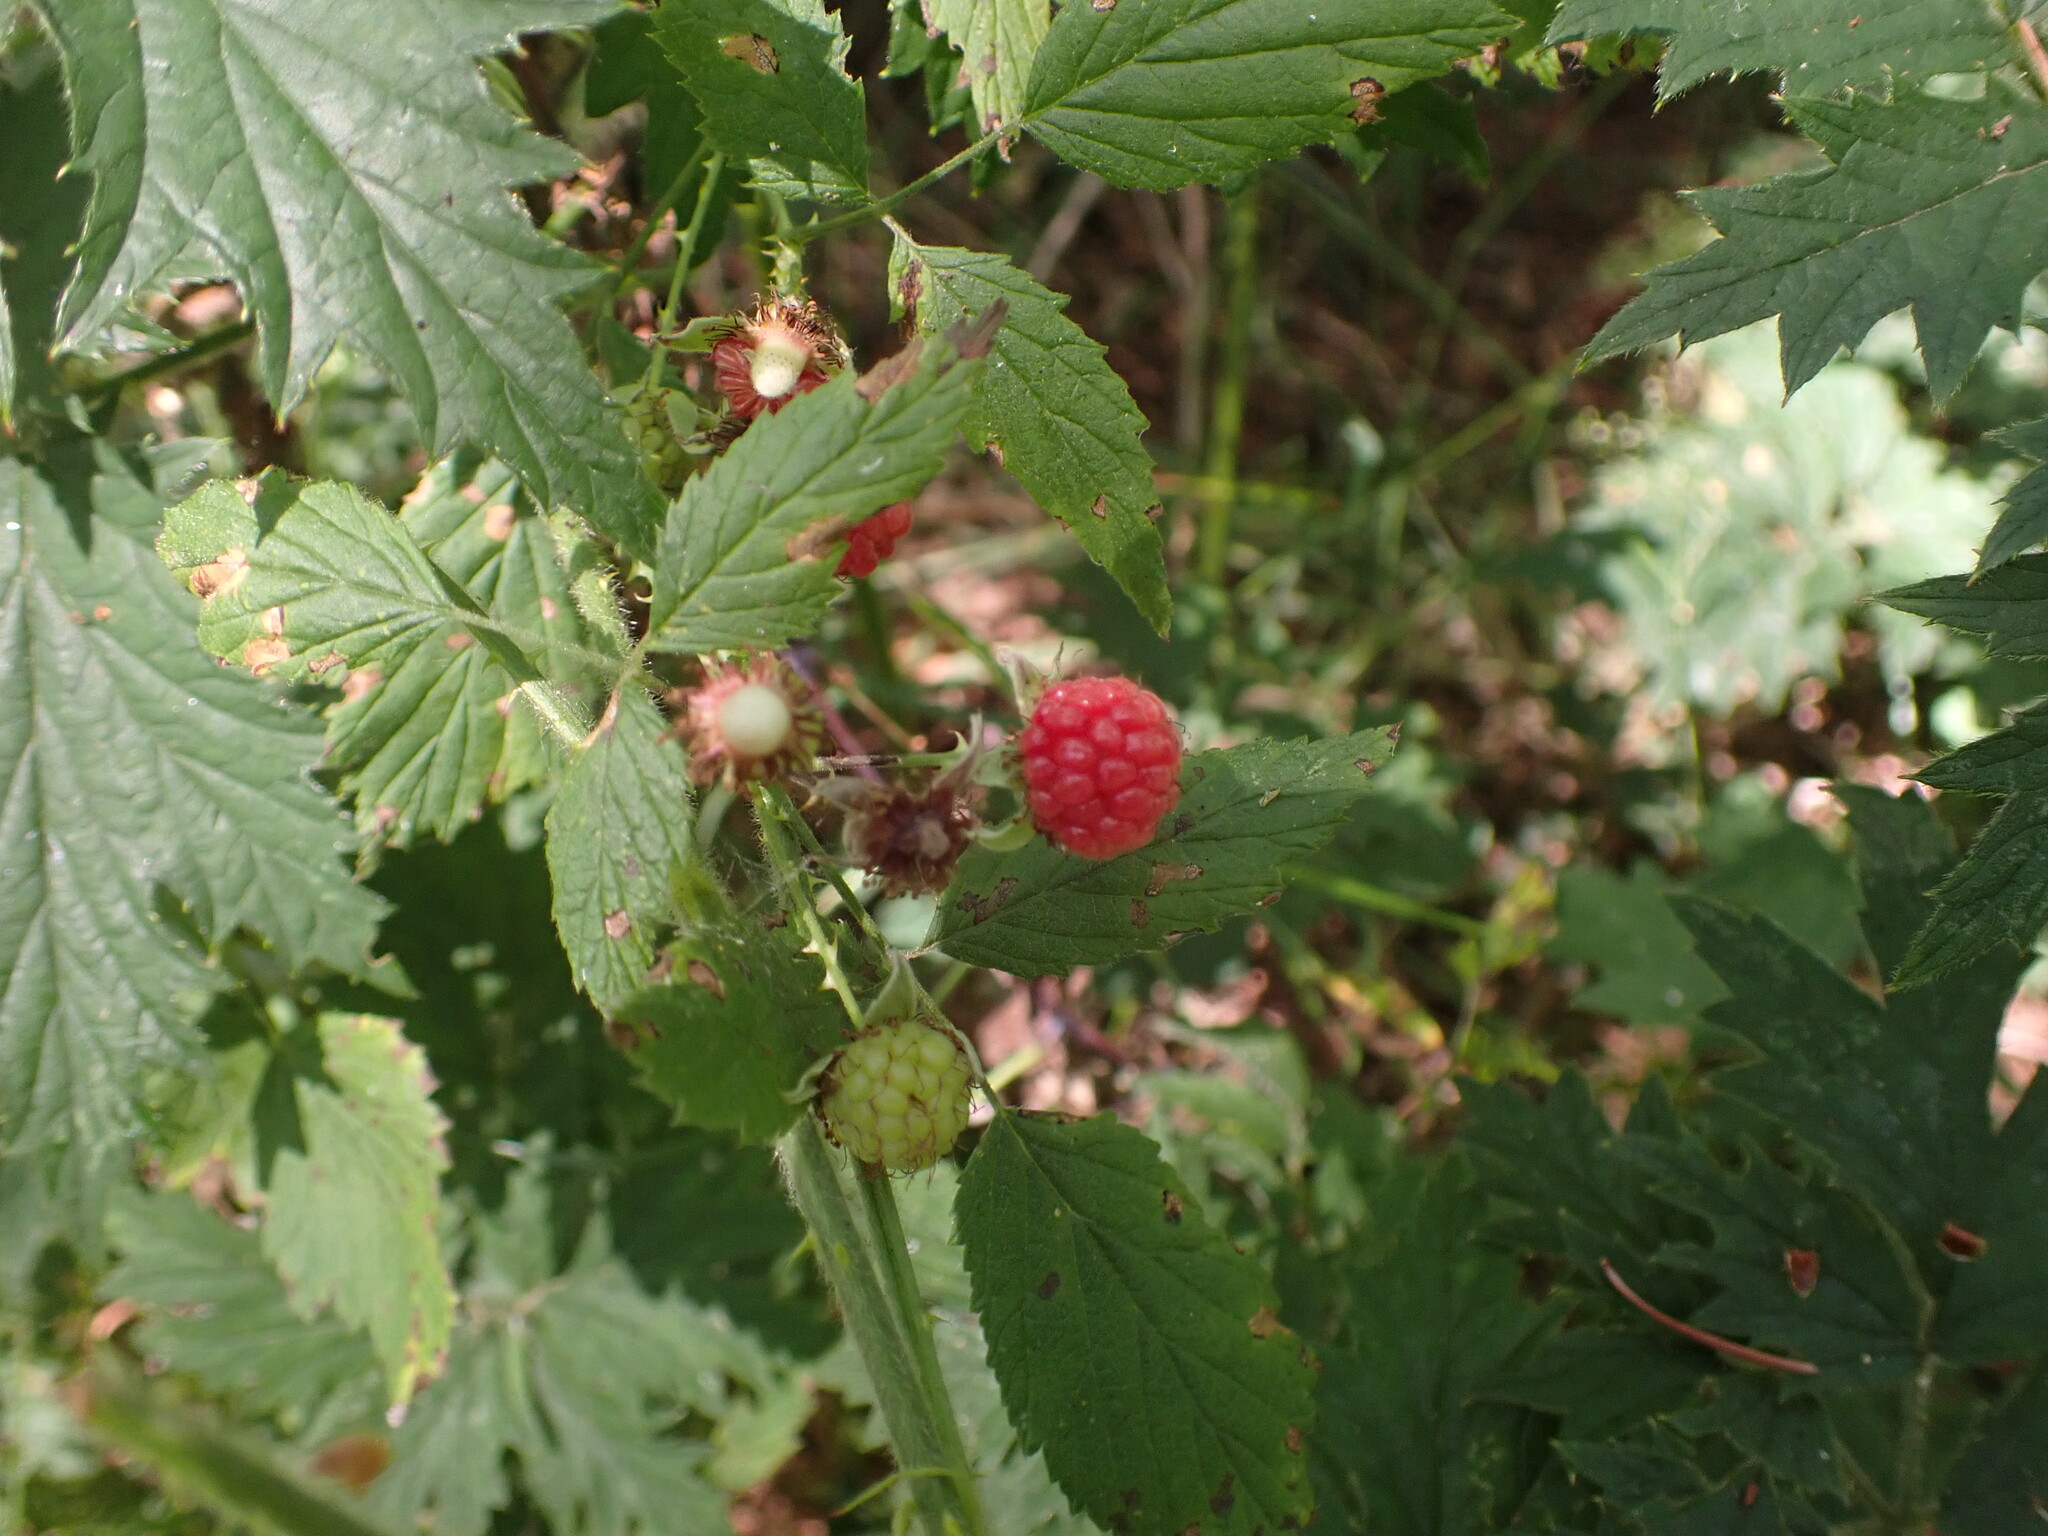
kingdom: Plantae
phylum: Tracheophyta
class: Magnoliopsida
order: Rosales
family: Rosaceae
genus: Rubus
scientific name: Rubus leucodermis
